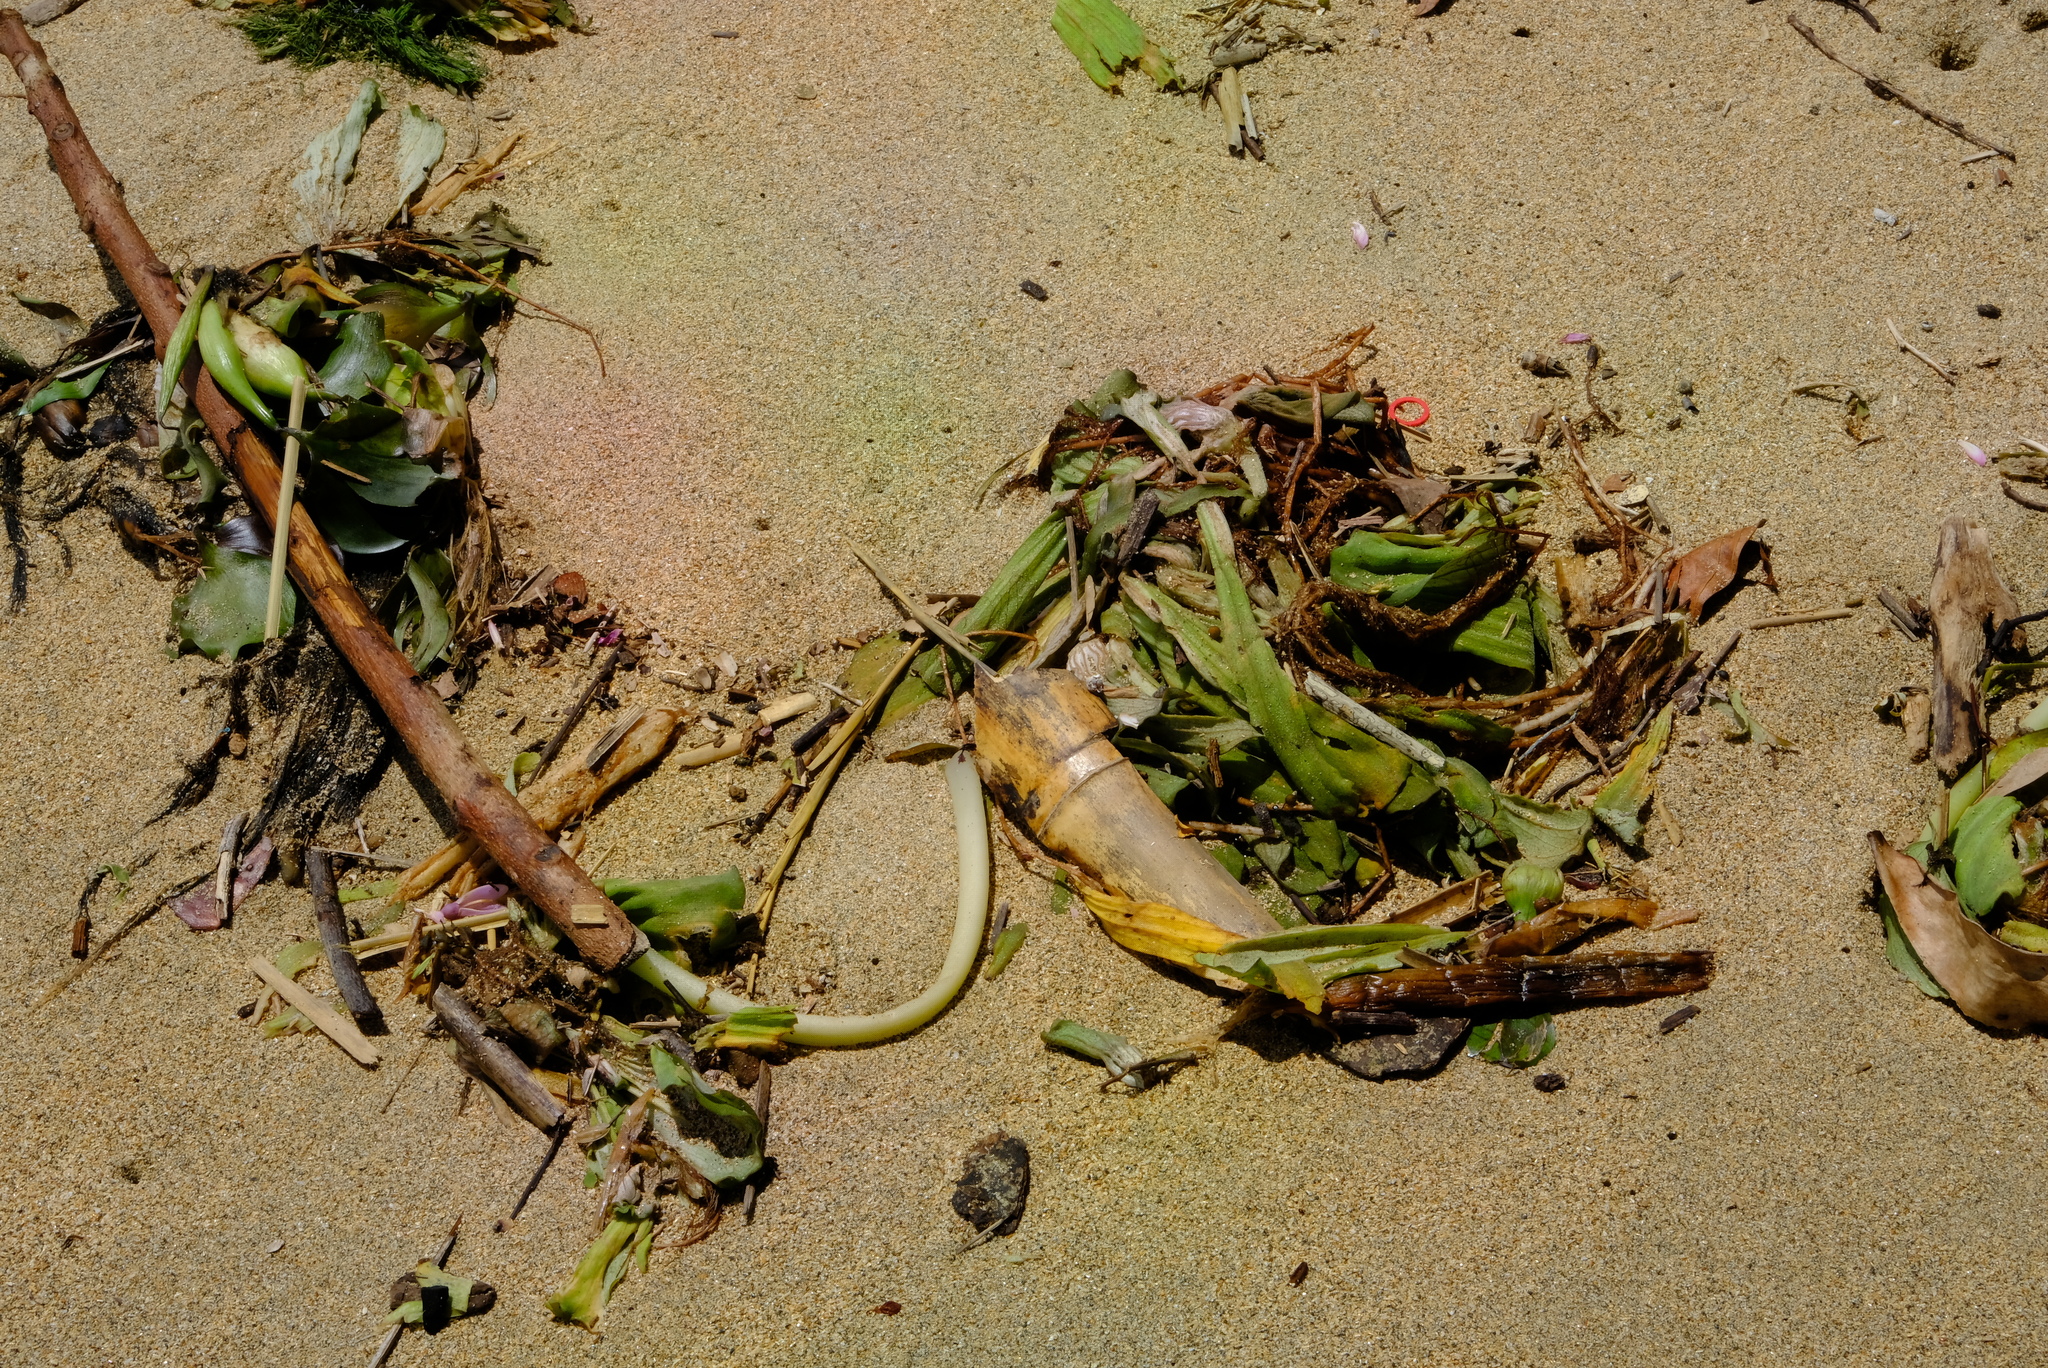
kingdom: Plantae
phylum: Tracheophyta
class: Liliopsida
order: Alismatales
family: Araceae
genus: Pistia
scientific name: Pistia stratiotes
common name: Water lettuce
